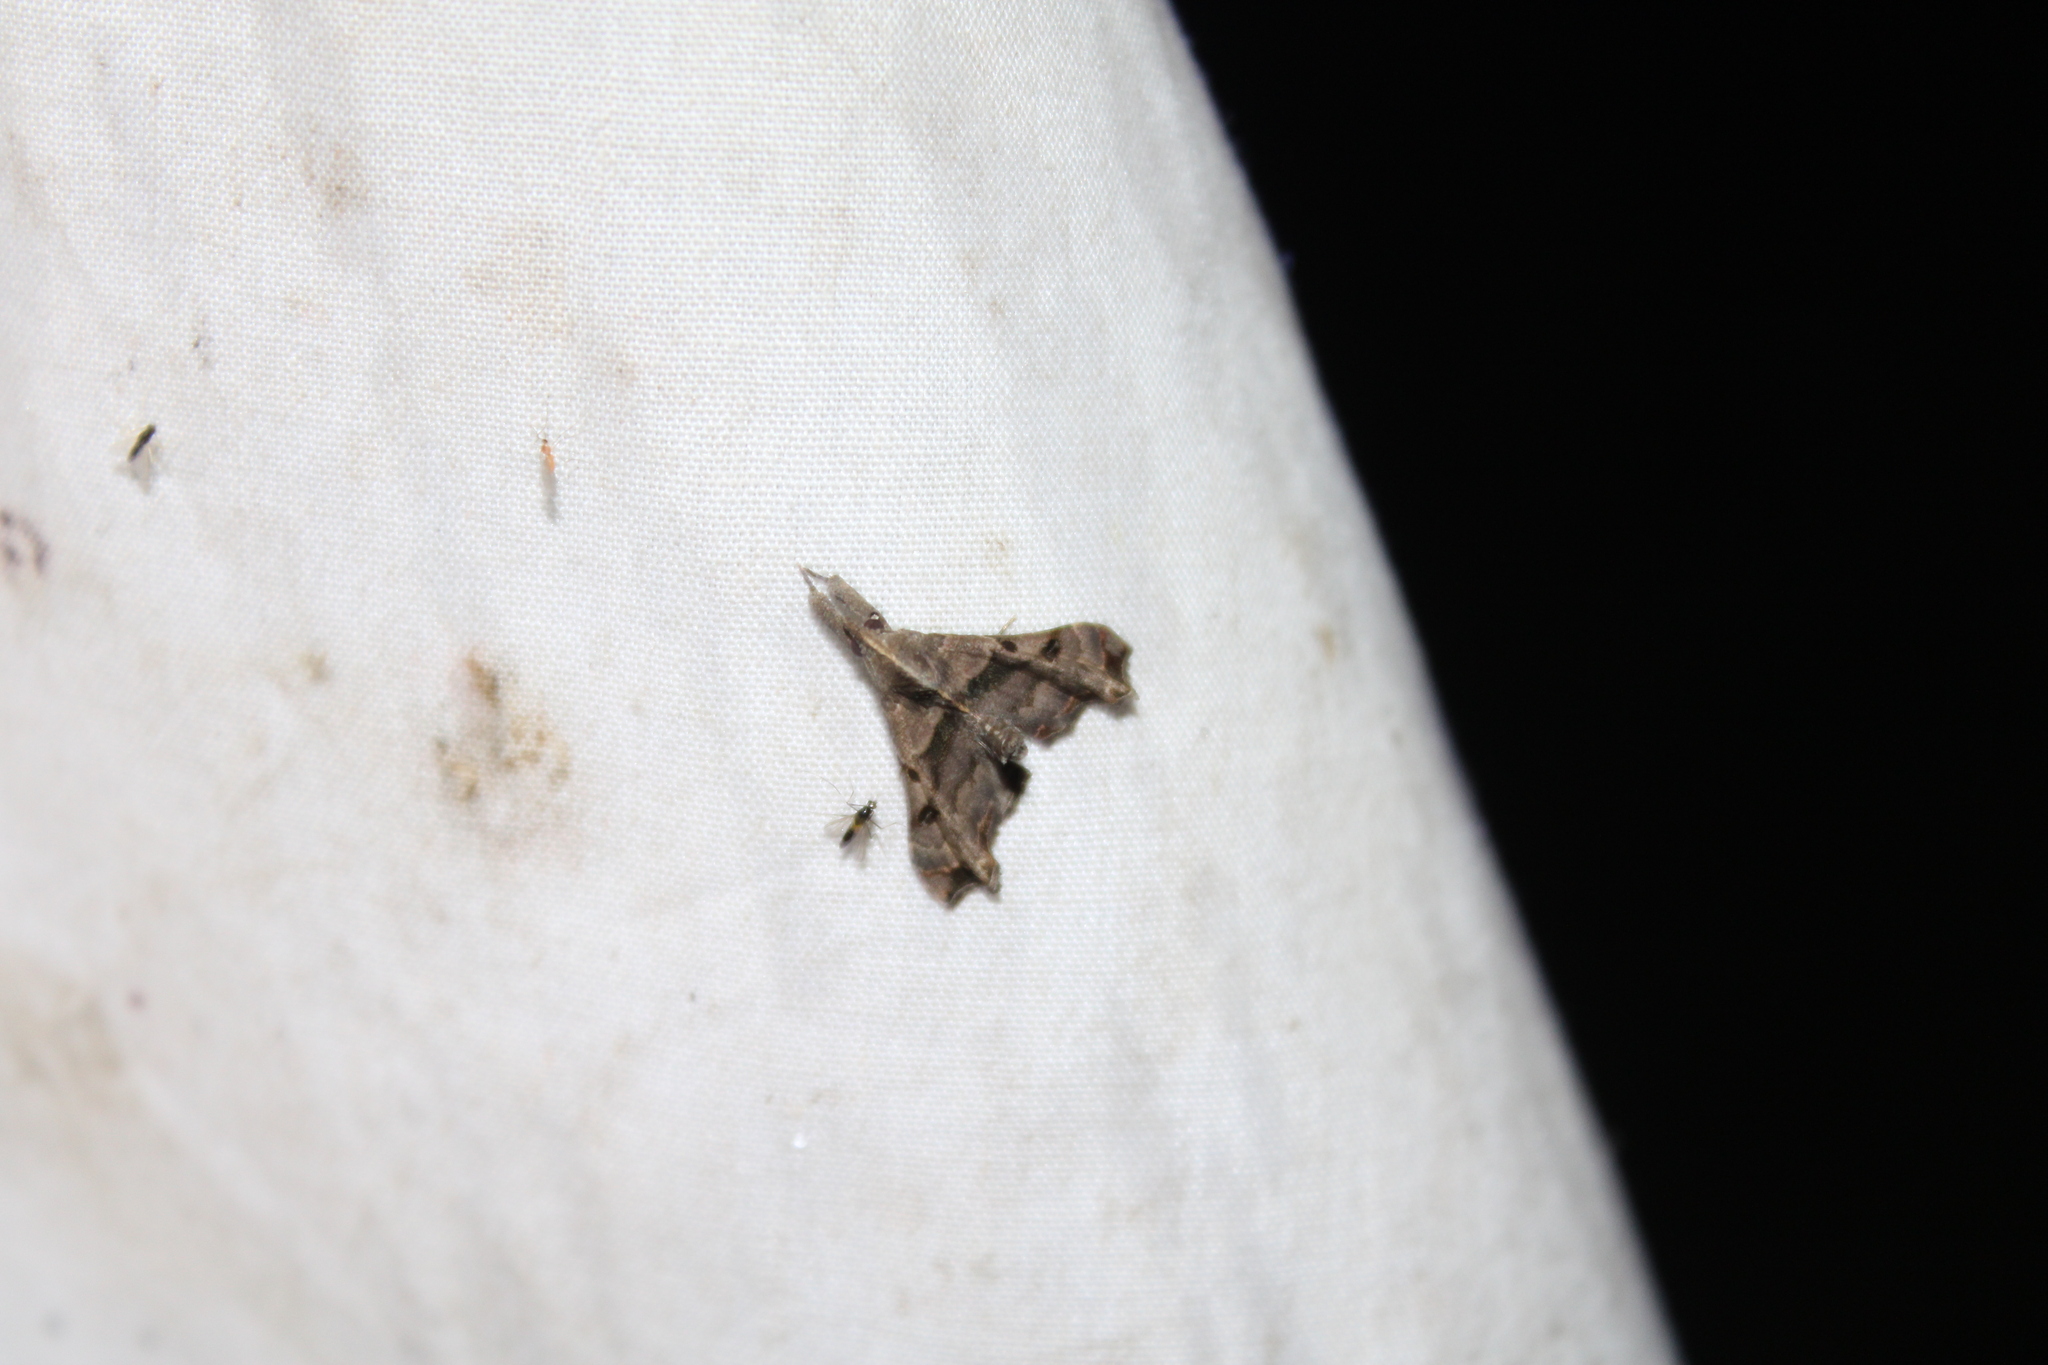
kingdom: Animalia
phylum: Arthropoda
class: Insecta
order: Lepidoptera
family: Erebidae
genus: Palthis
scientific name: Palthis asopialis
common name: Faint-spotted palthis moth
